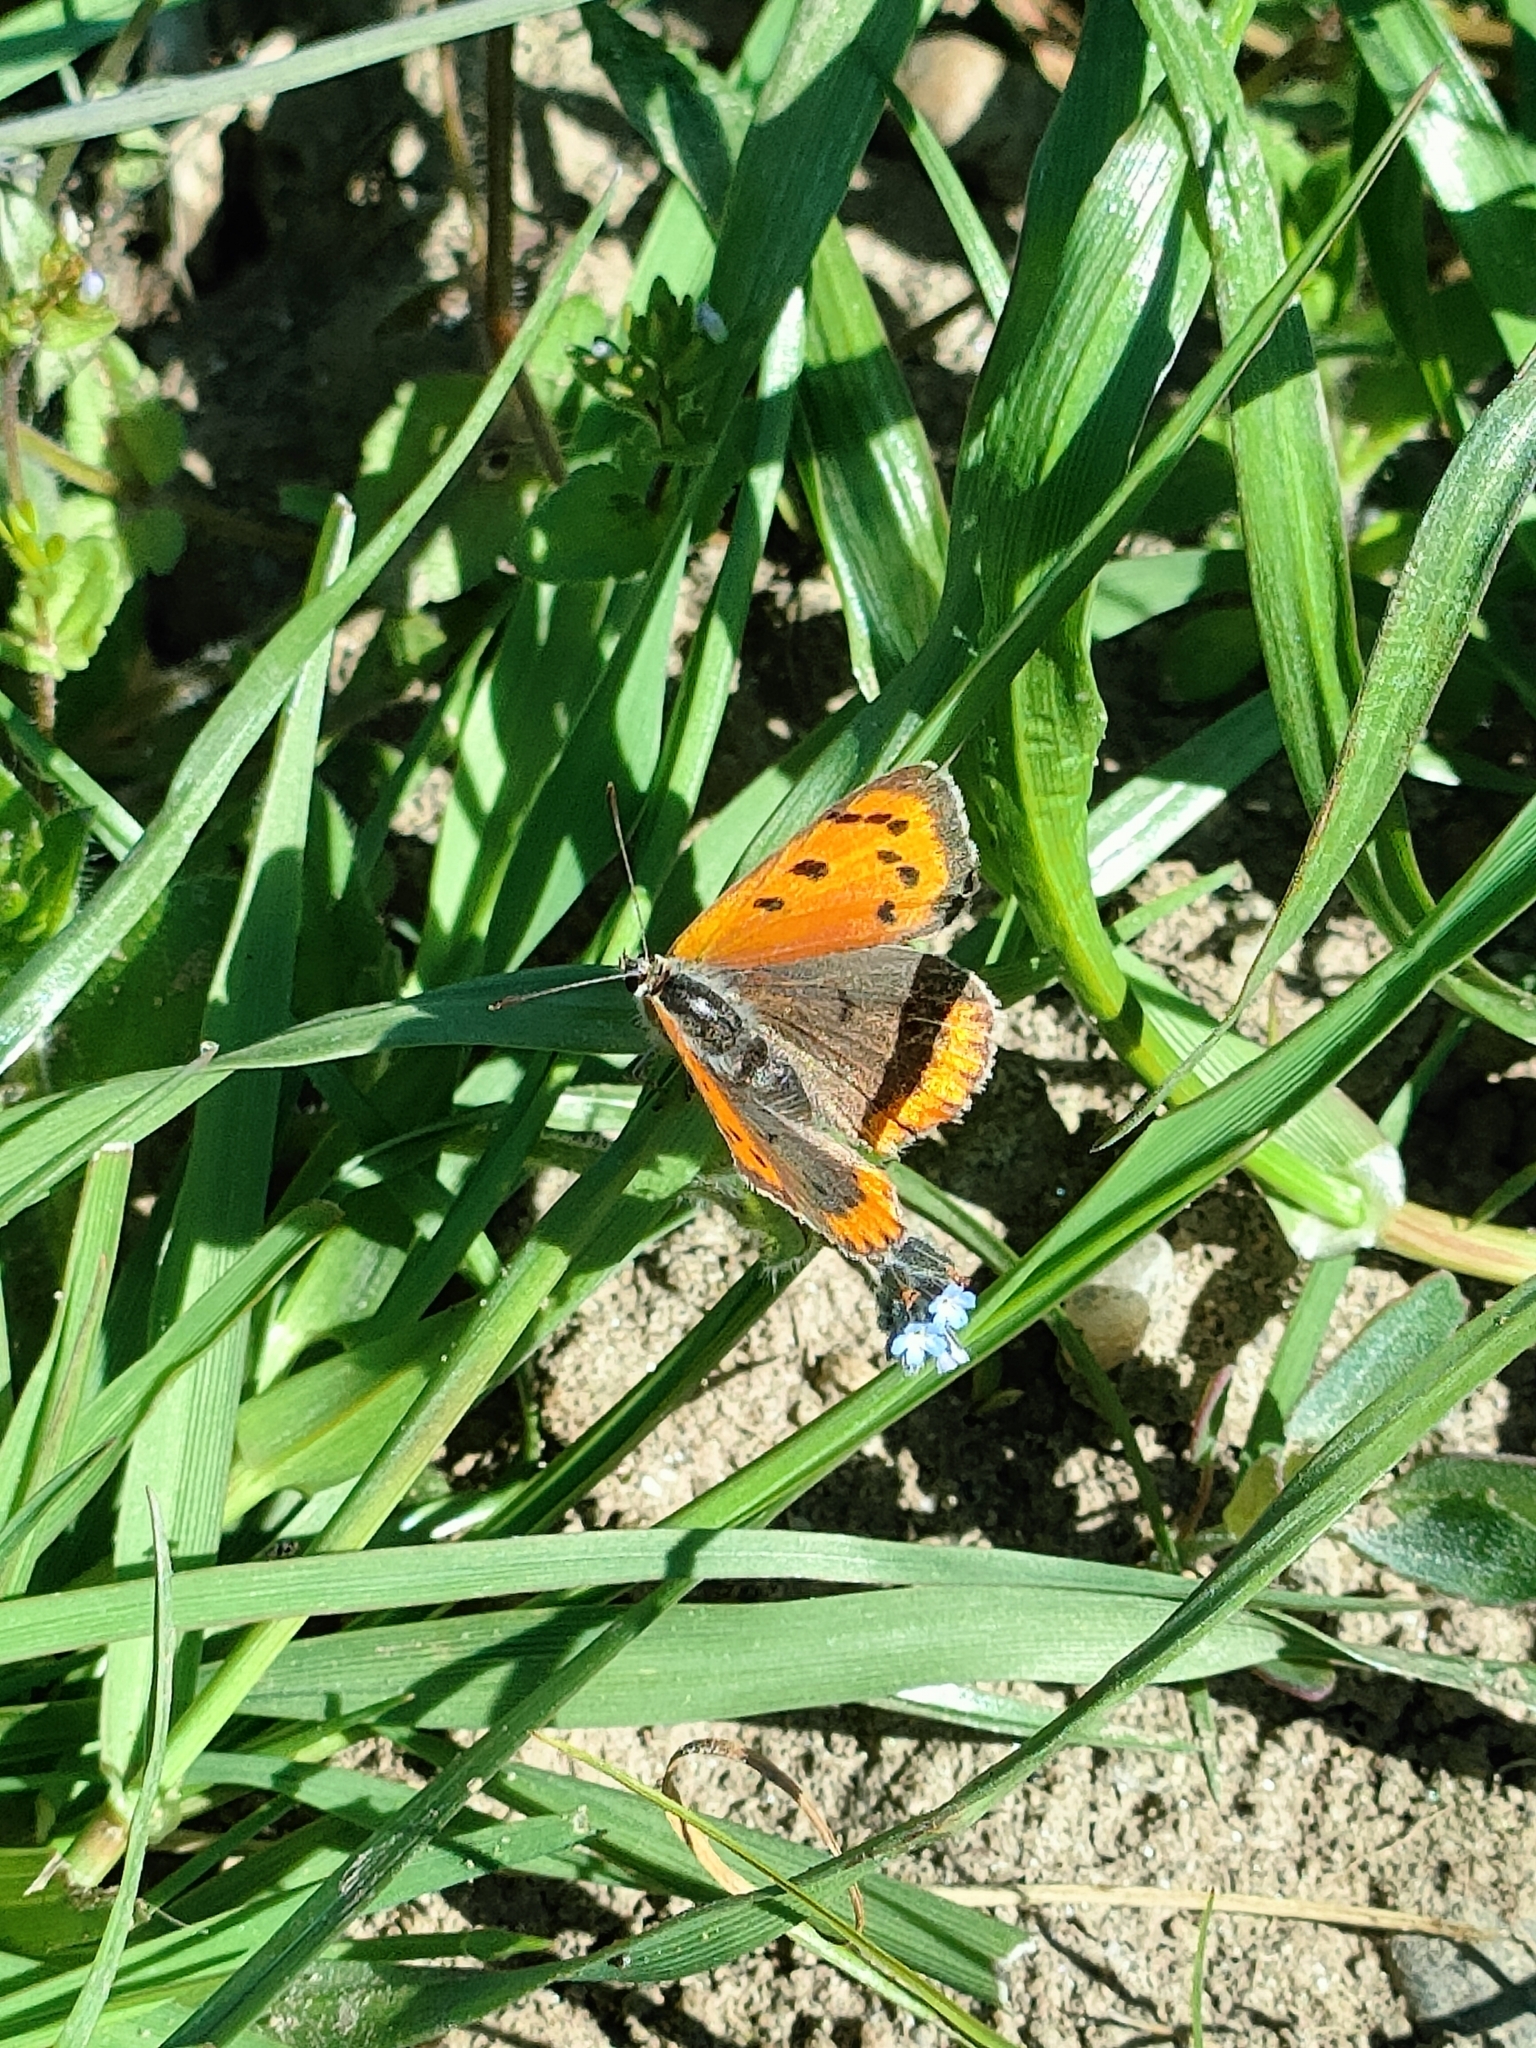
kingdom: Animalia
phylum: Arthropoda
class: Insecta
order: Lepidoptera
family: Lycaenidae
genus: Lycaena
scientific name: Lycaena phlaeas
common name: Small copper
